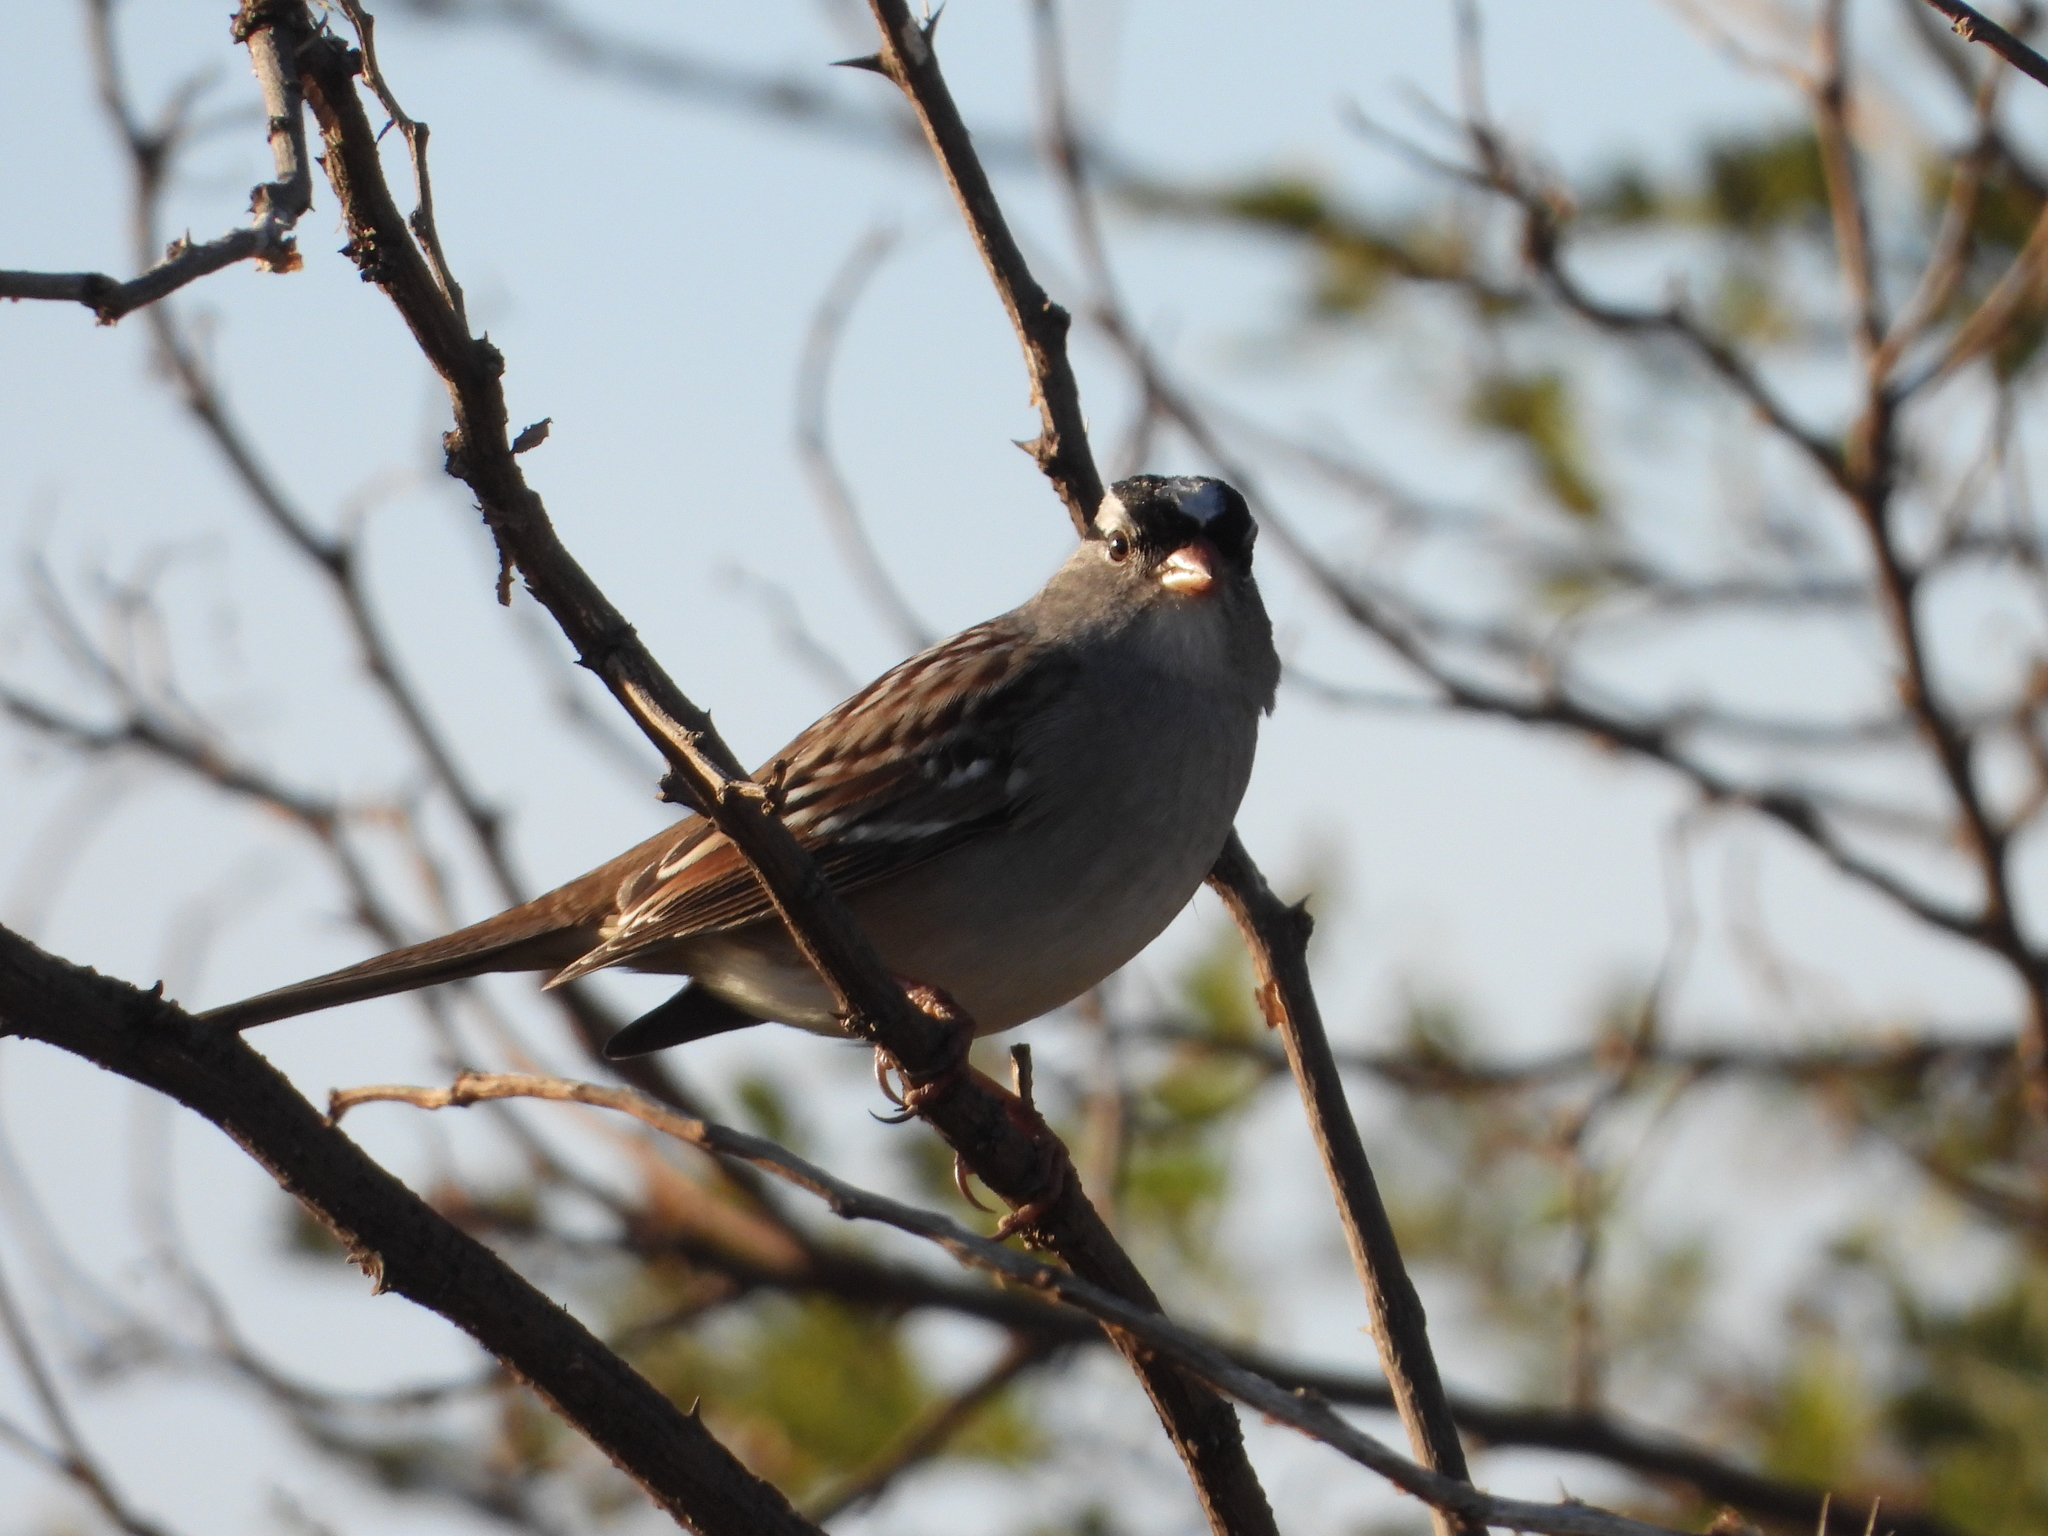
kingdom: Animalia
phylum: Chordata
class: Aves
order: Passeriformes
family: Passerellidae
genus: Zonotrichia
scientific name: Zonotrichia leucophrys
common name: White-crowned sparrow
